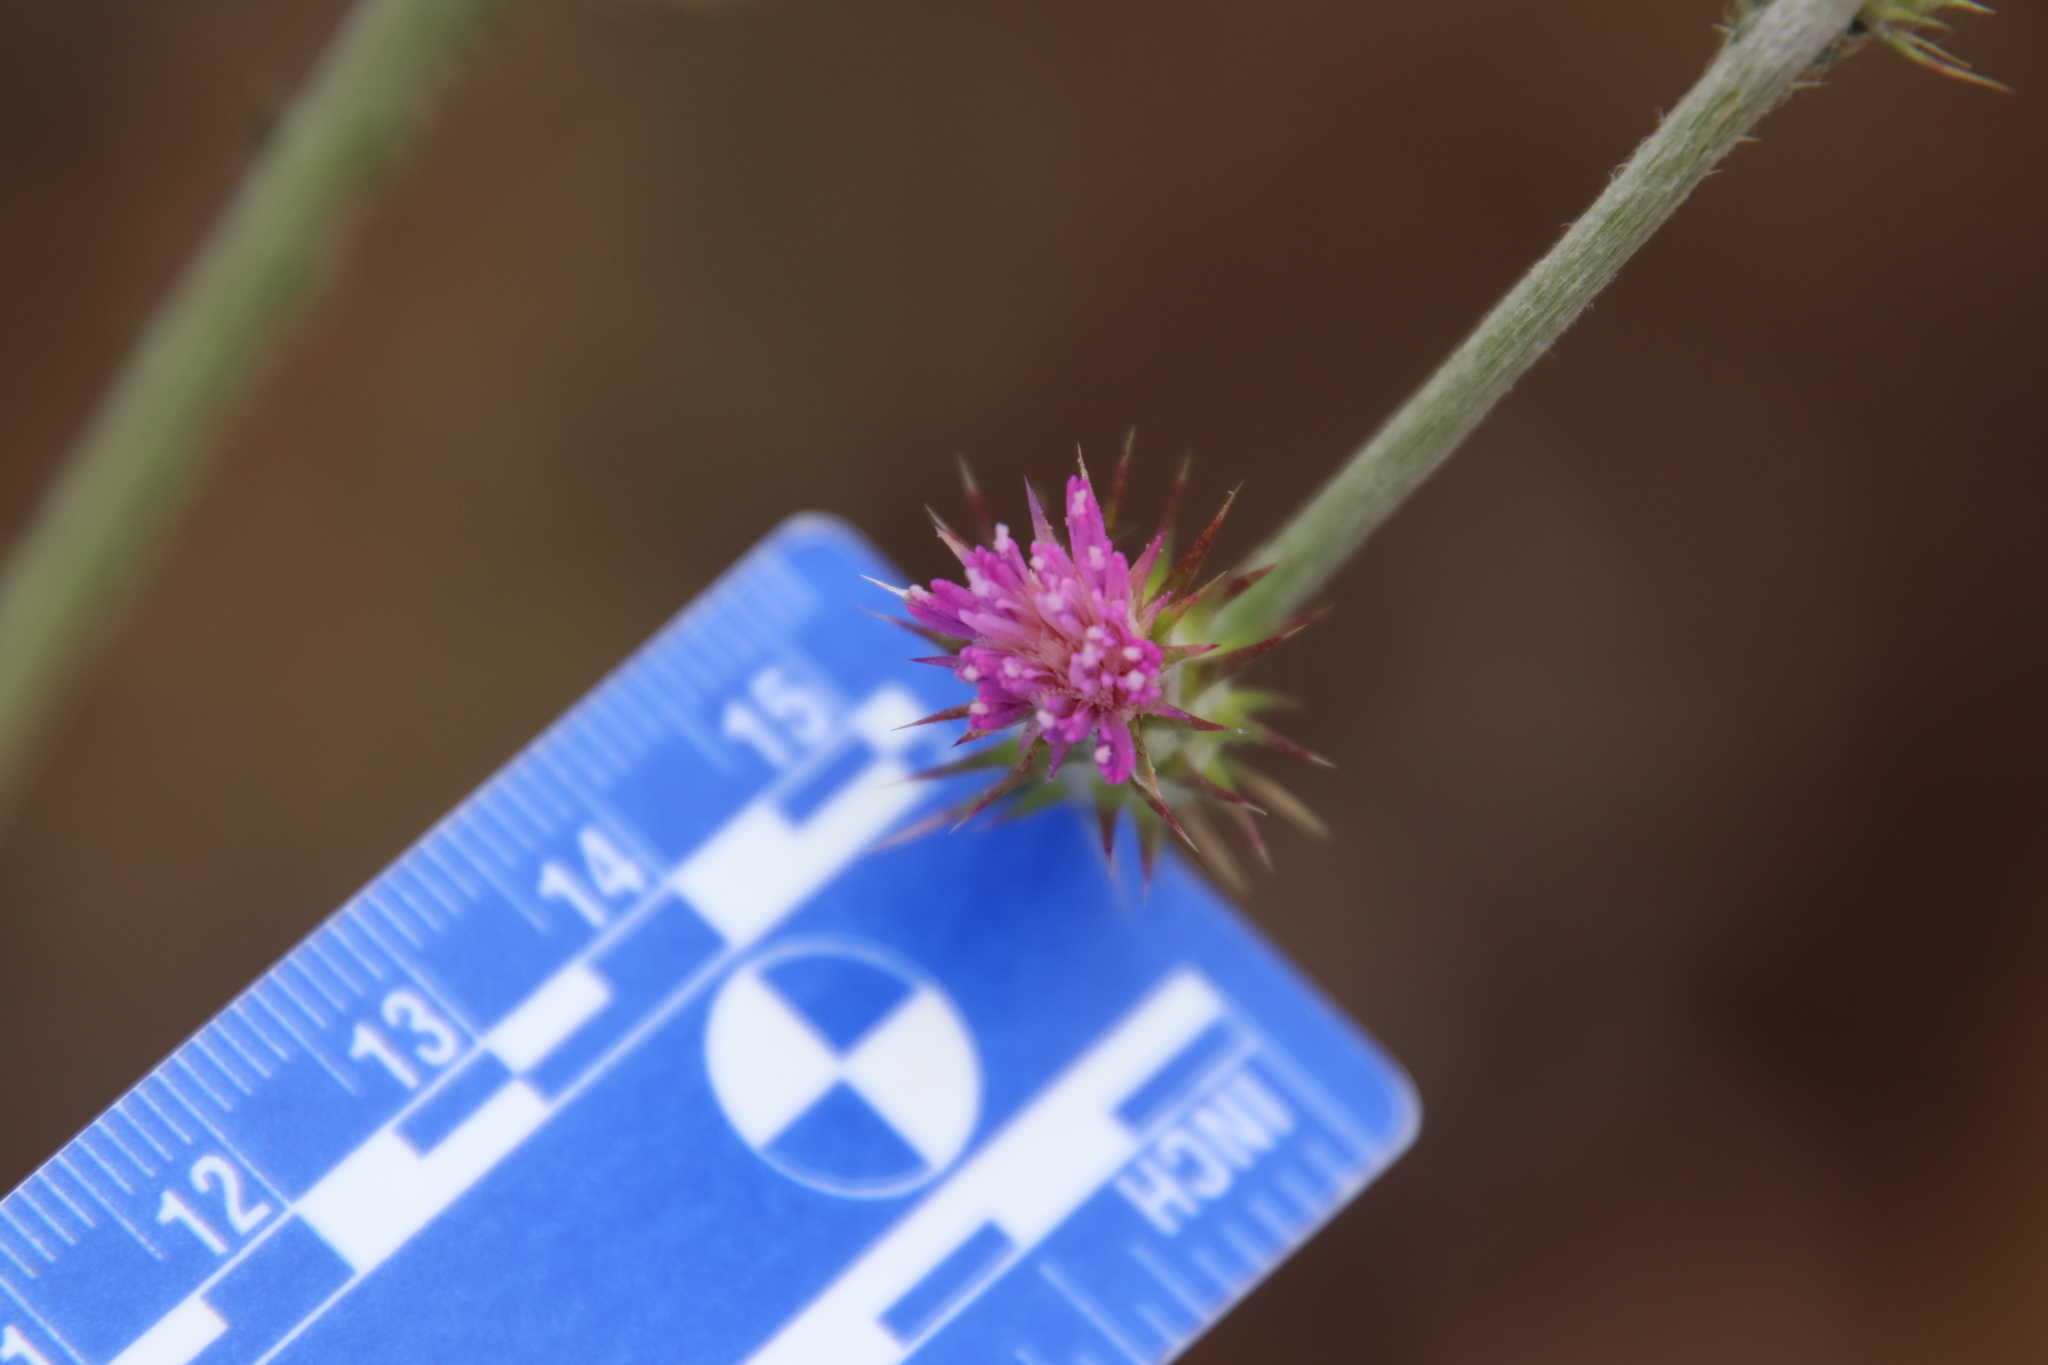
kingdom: Plantae
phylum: Tracheophyta
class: Magnoliopsida
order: Asterales
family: Asteraceae
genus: Carduus
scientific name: Carduus pycnocephalus
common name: Plymouth thistle
